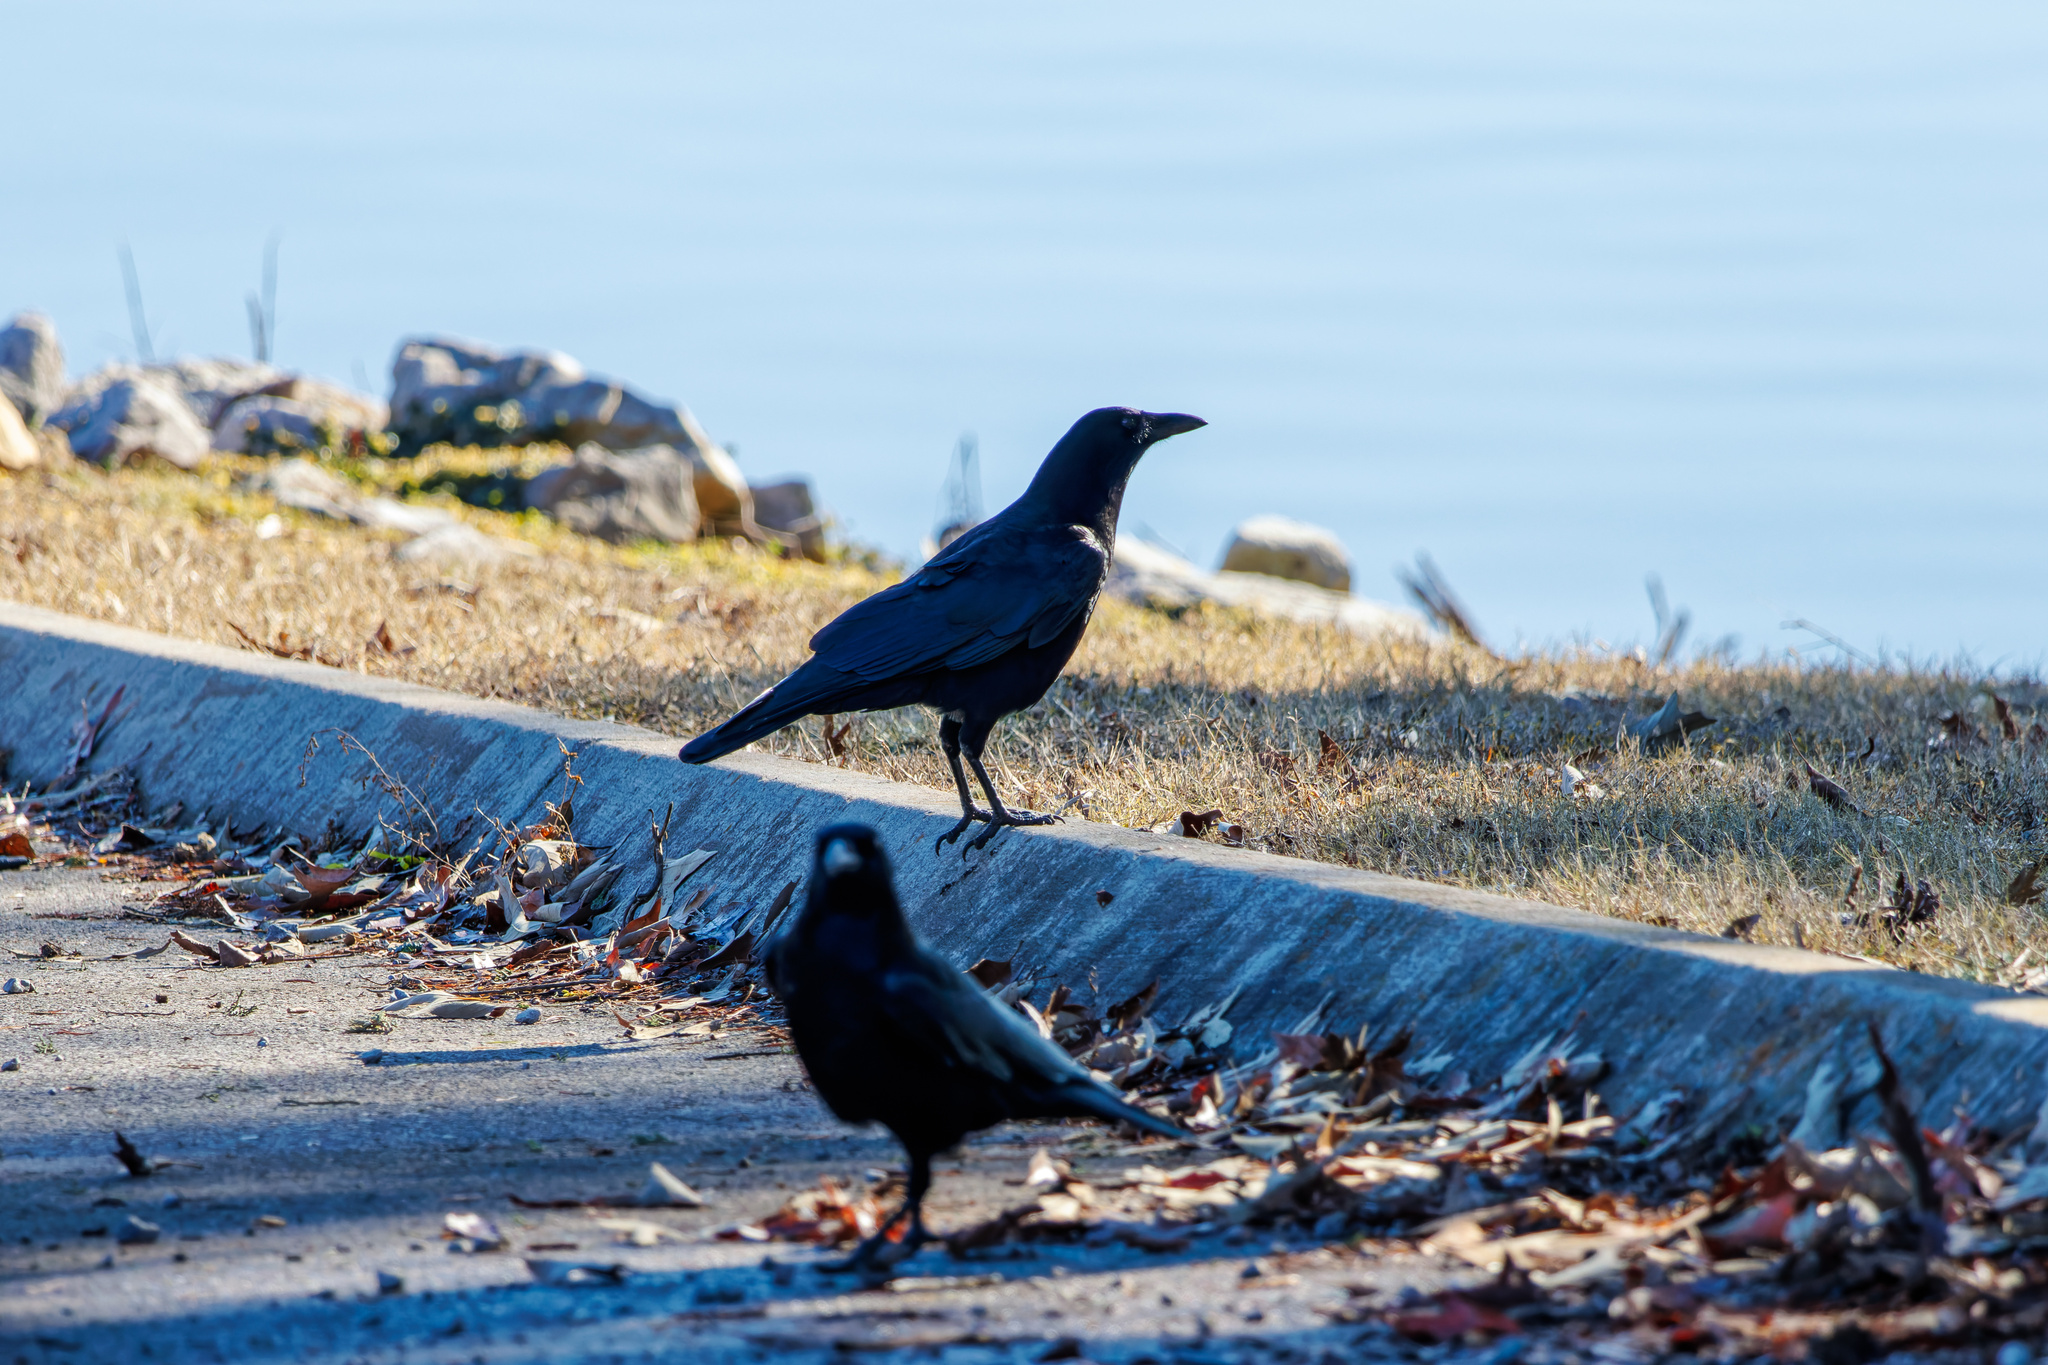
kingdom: Animalia
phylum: Chordata
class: Aves
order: Passeriformes
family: Corvidae
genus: Corvus
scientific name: Corvus brachyrhynchos
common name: American crow
